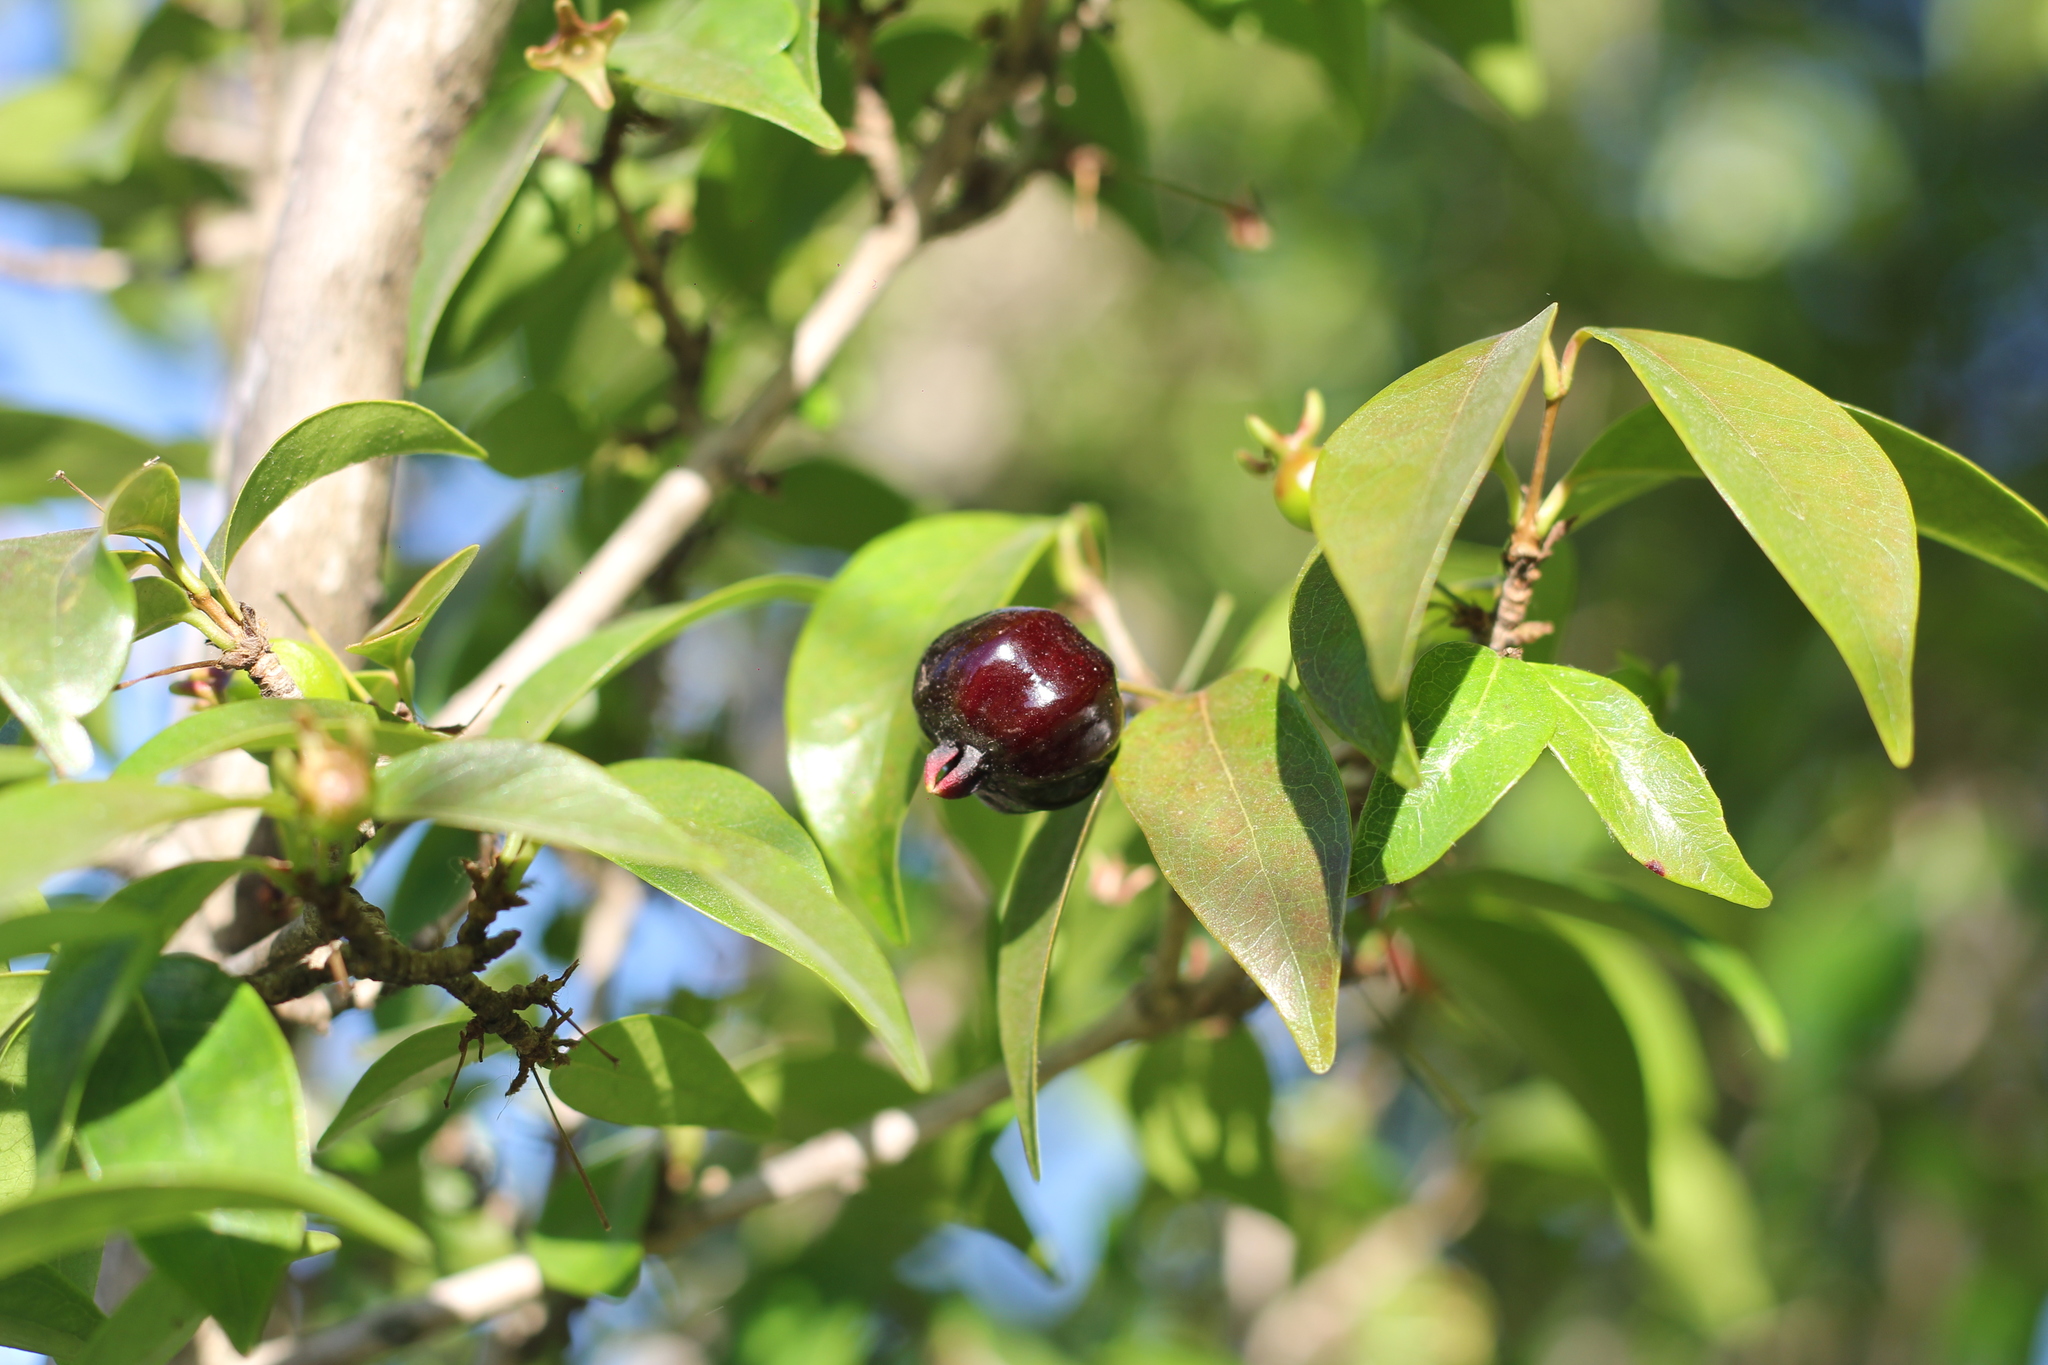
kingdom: Plantae
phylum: Tracheophyta
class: Magnoliopsida
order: Myrtales
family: Myrtaceae
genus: Eugenia
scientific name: Eugenia uniflora
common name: Surinam cherry
